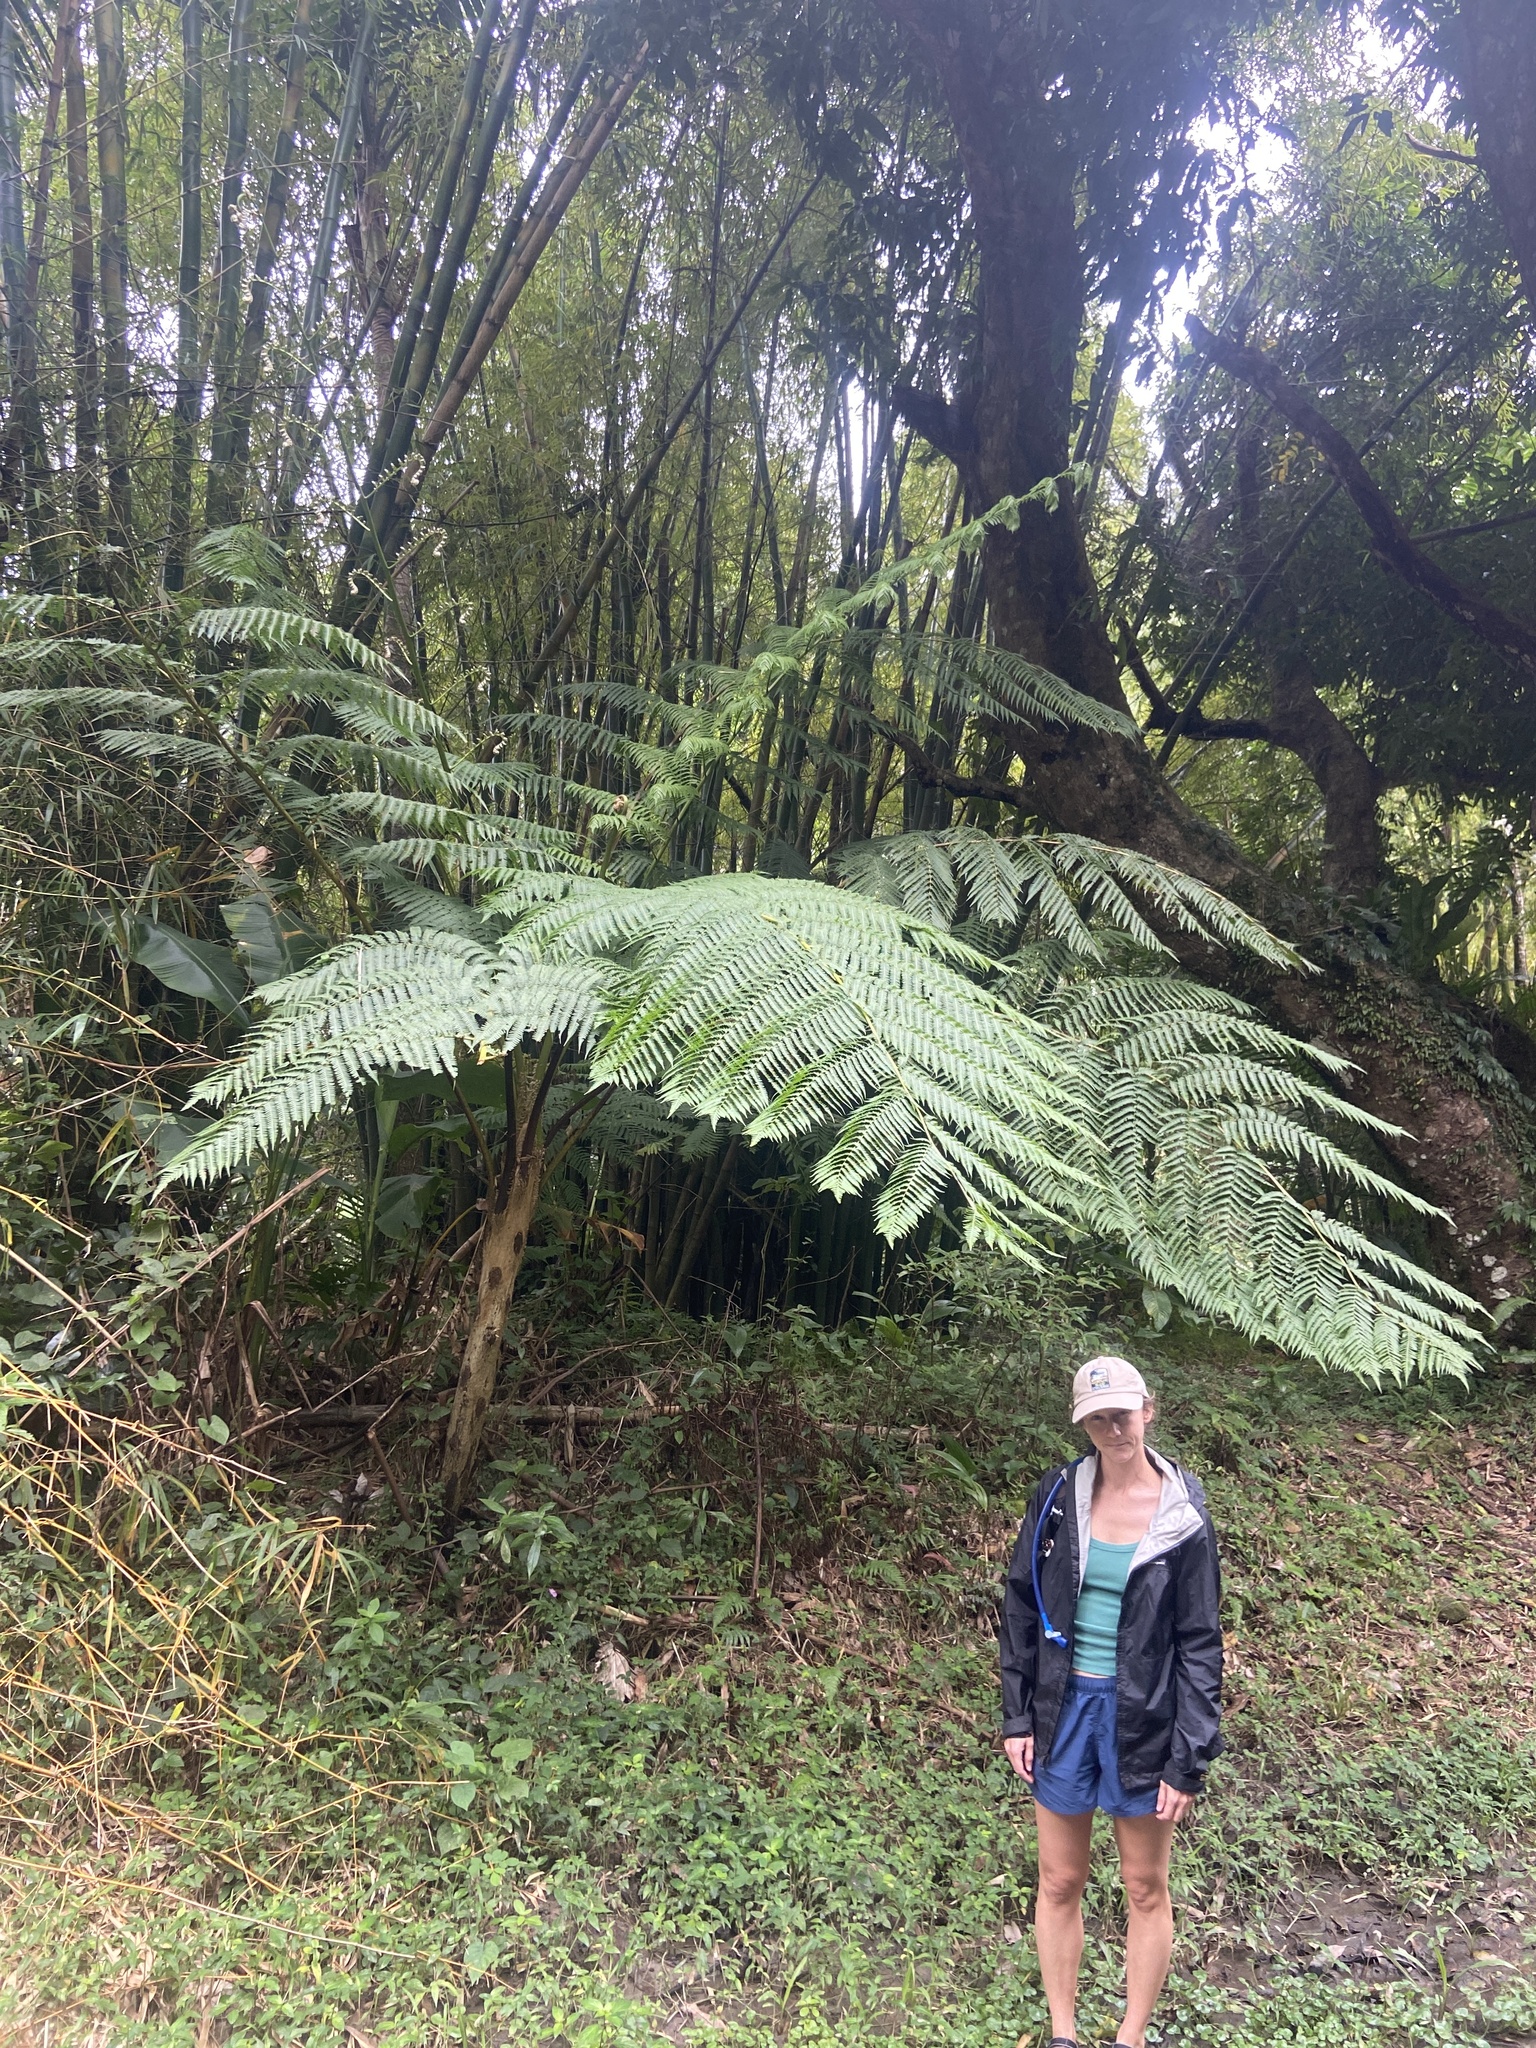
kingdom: Plantae
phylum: Tracheophyta
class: Polypodiopsida
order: Cyatheales
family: Cyatheaceae
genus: Cyathea
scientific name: Cyathea arborea
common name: West indian treefern
